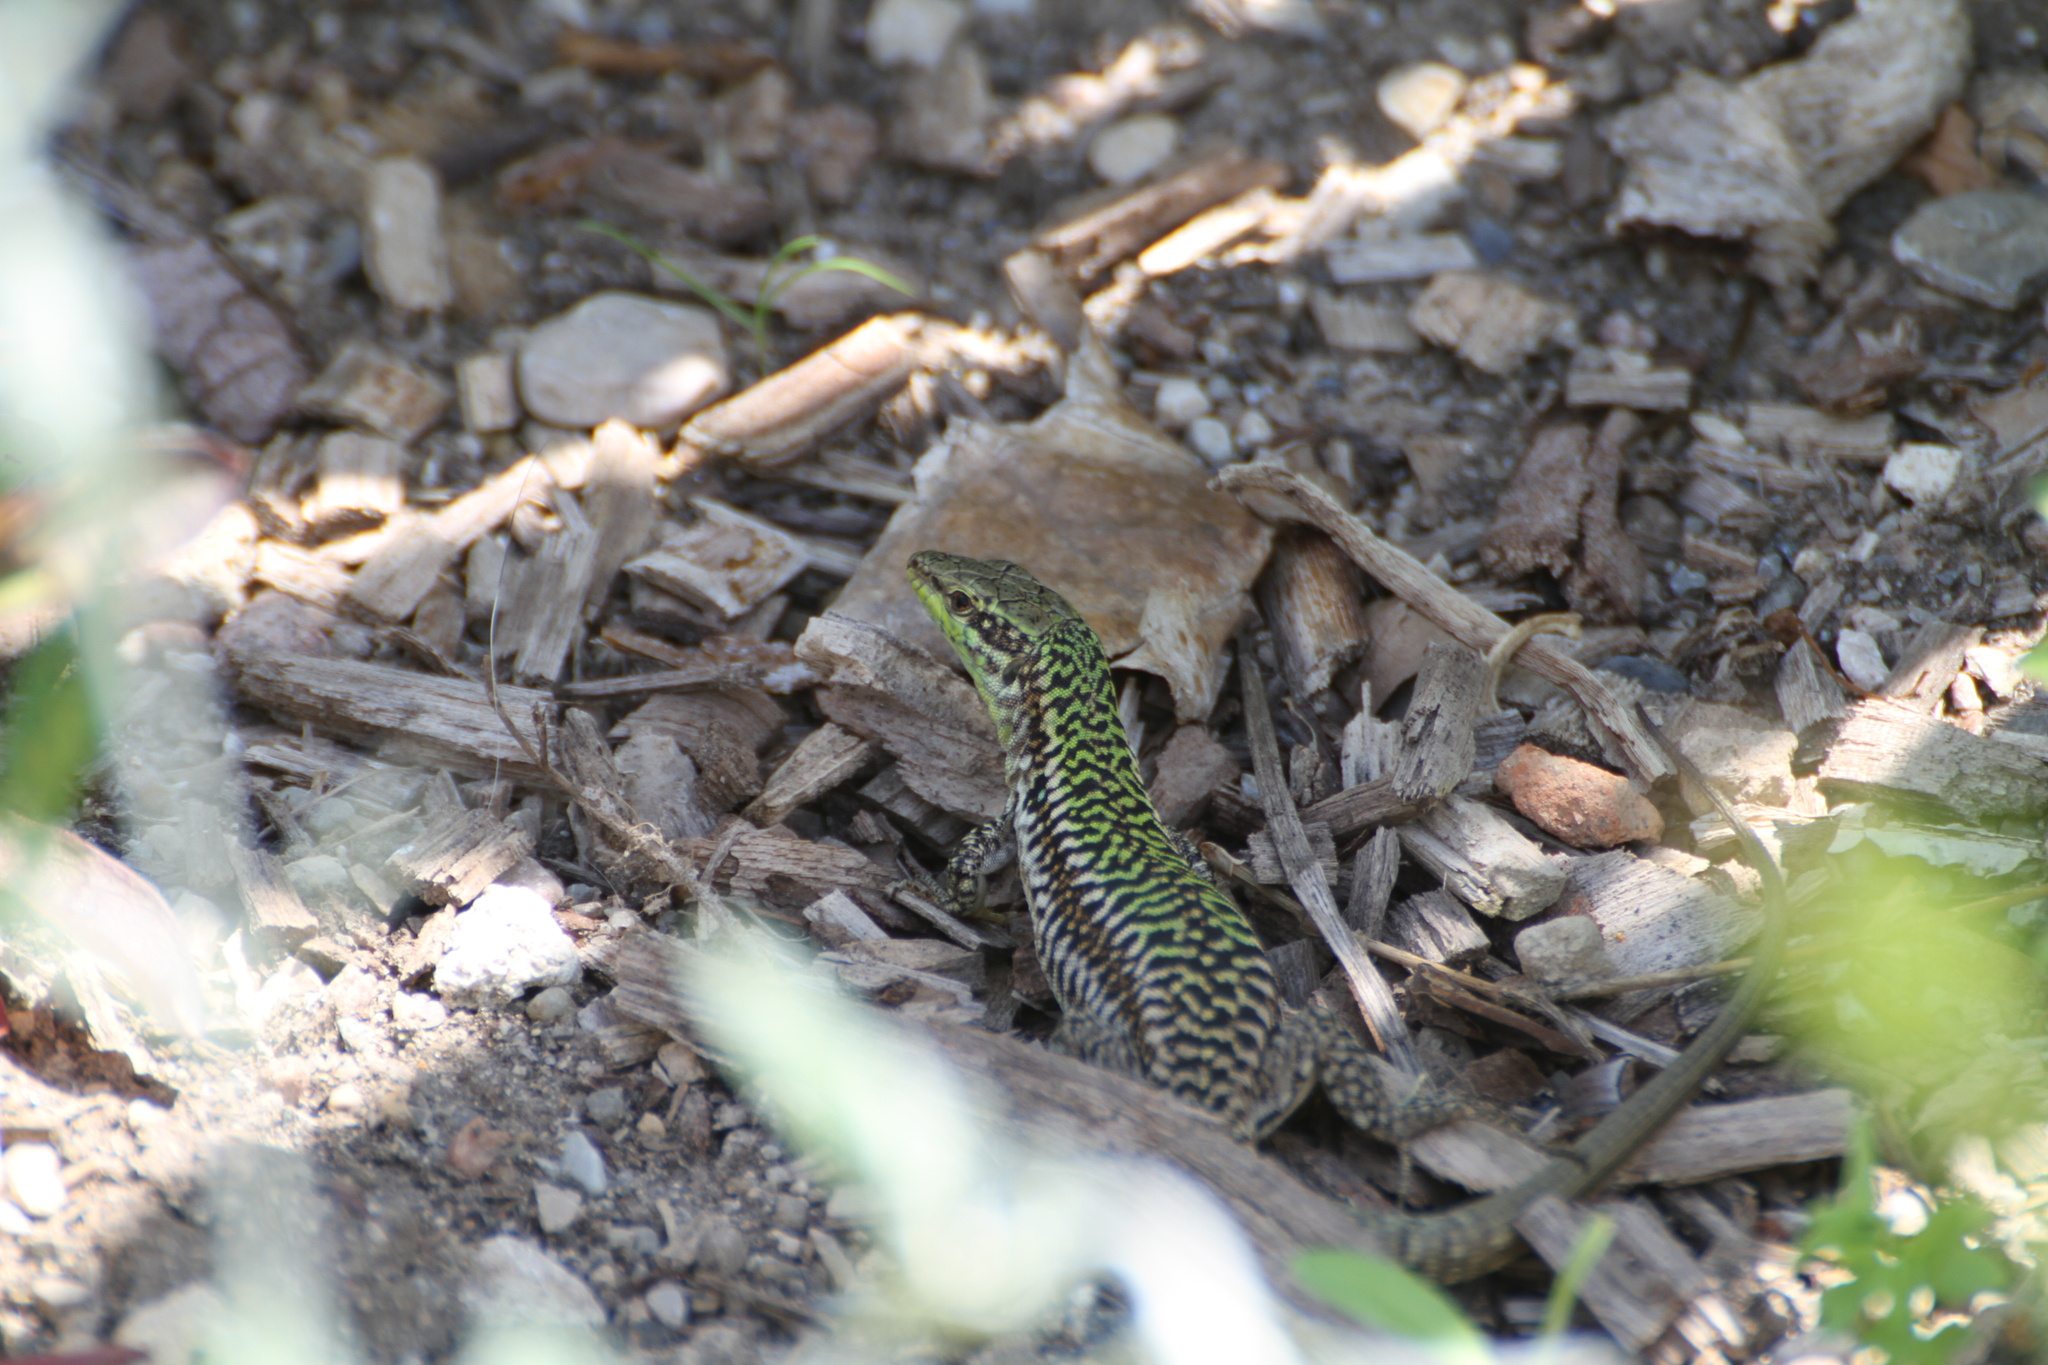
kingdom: Animalia
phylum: Chordata
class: Squamata
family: Lacertidae
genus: Podarcis
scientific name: Podarcis siculus
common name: Italian wall lizard
